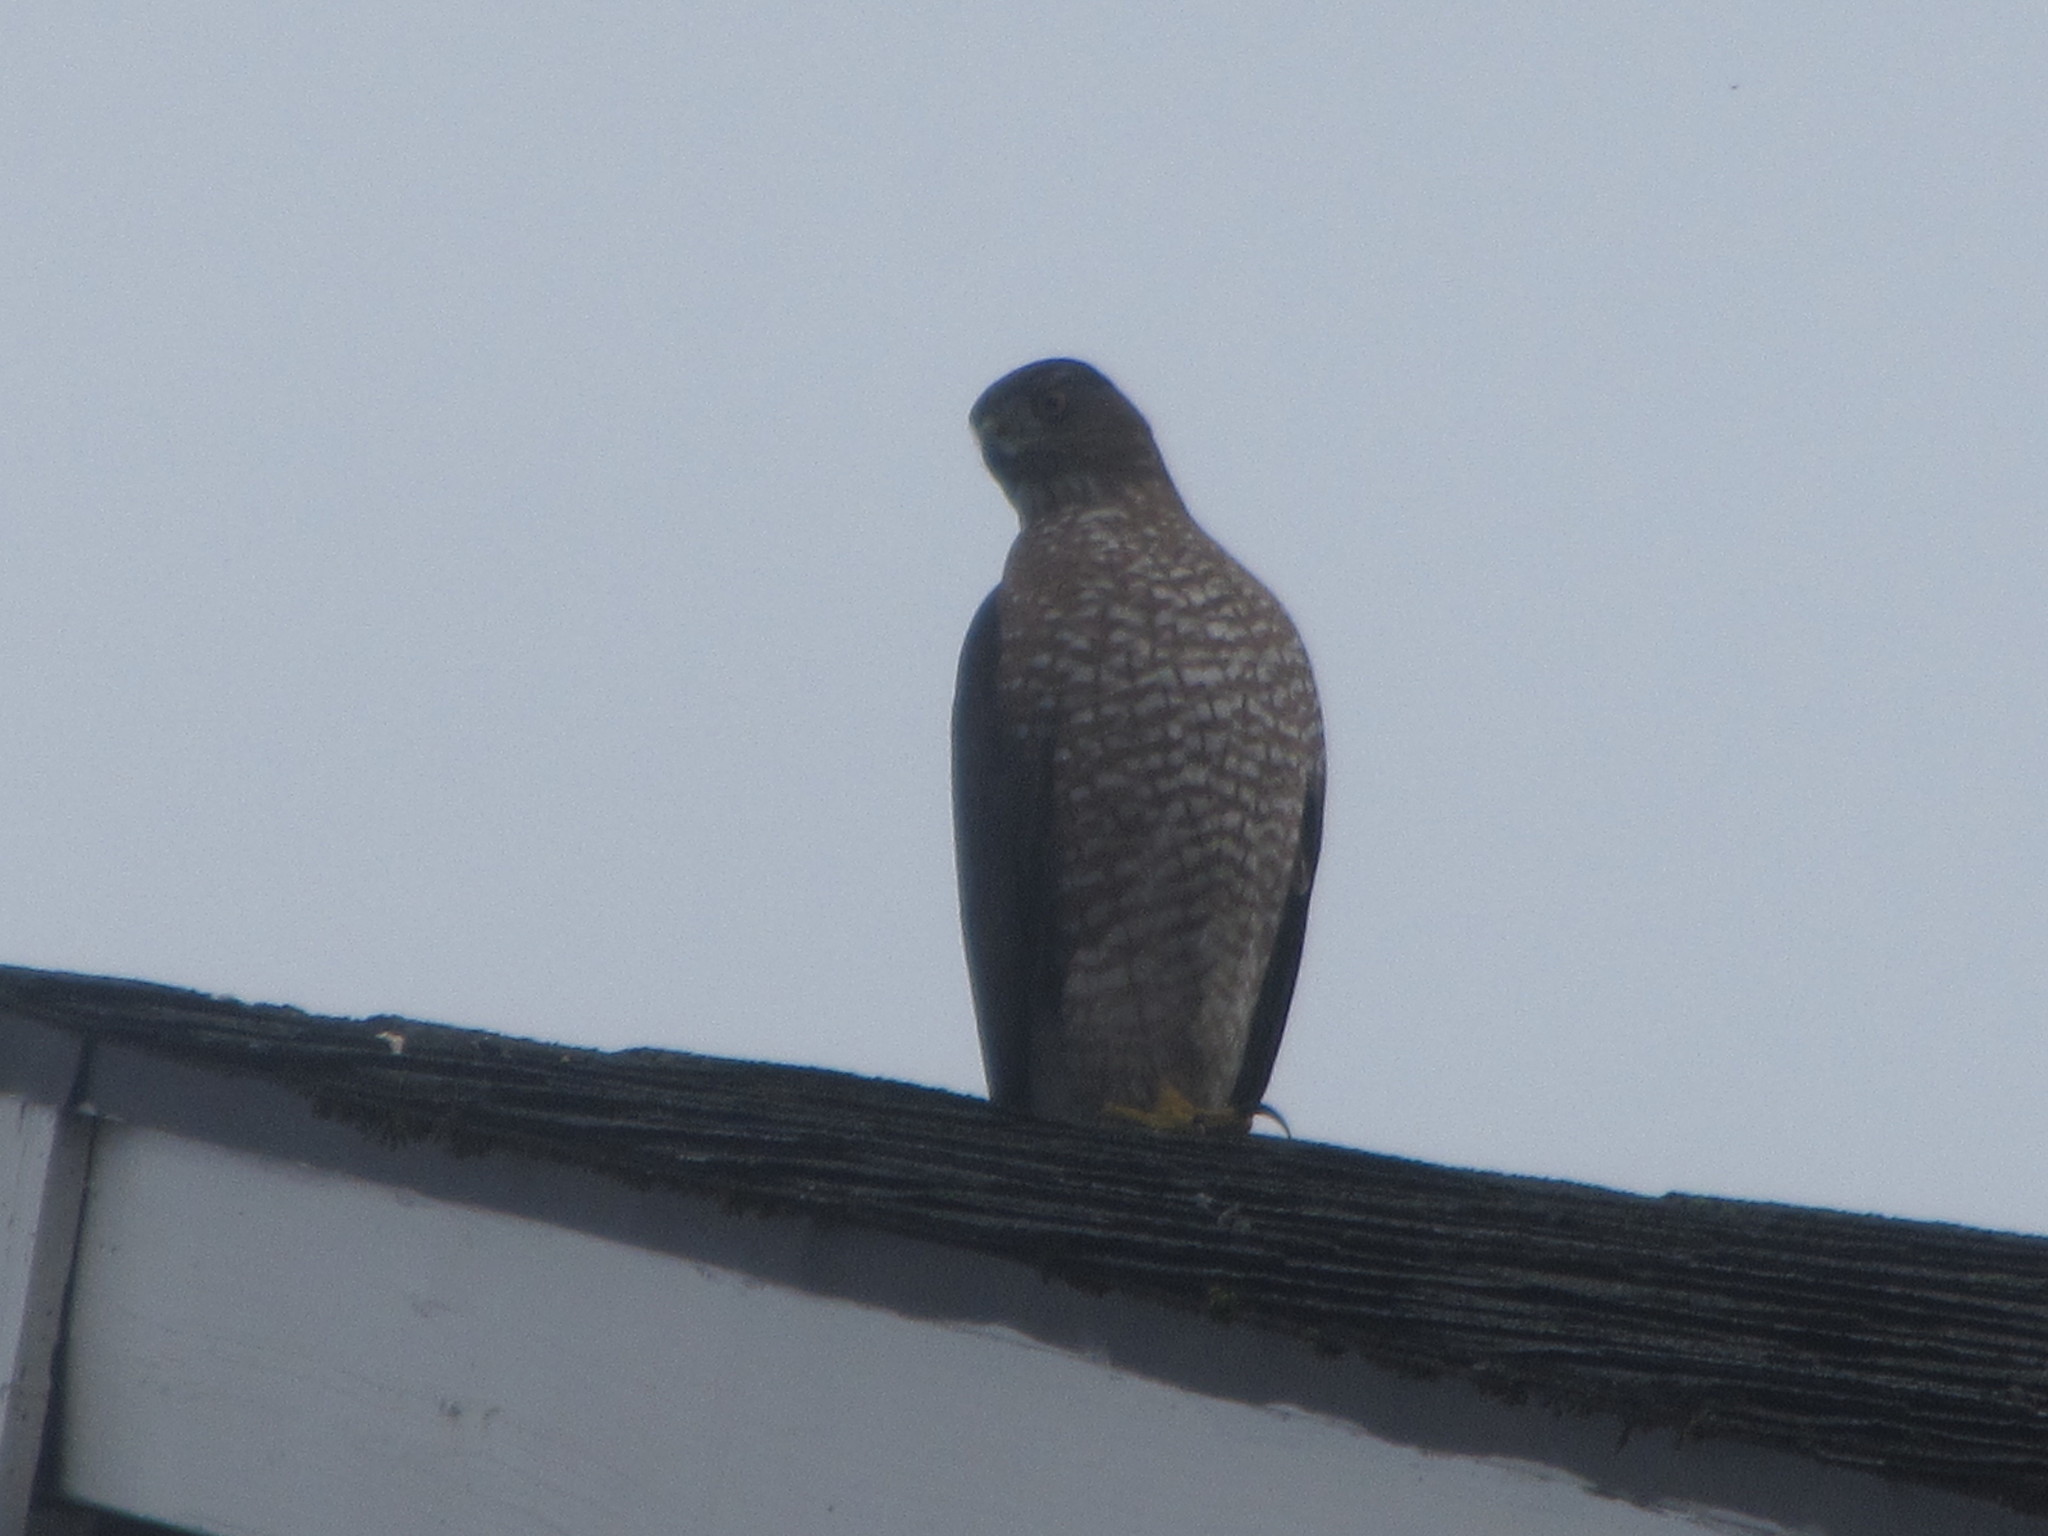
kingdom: Animalia
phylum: Chordata
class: Aves
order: Accipitriformes
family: Accipitridae
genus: Accipiter
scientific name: Accipiter cooperii
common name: Cooper's hawk
